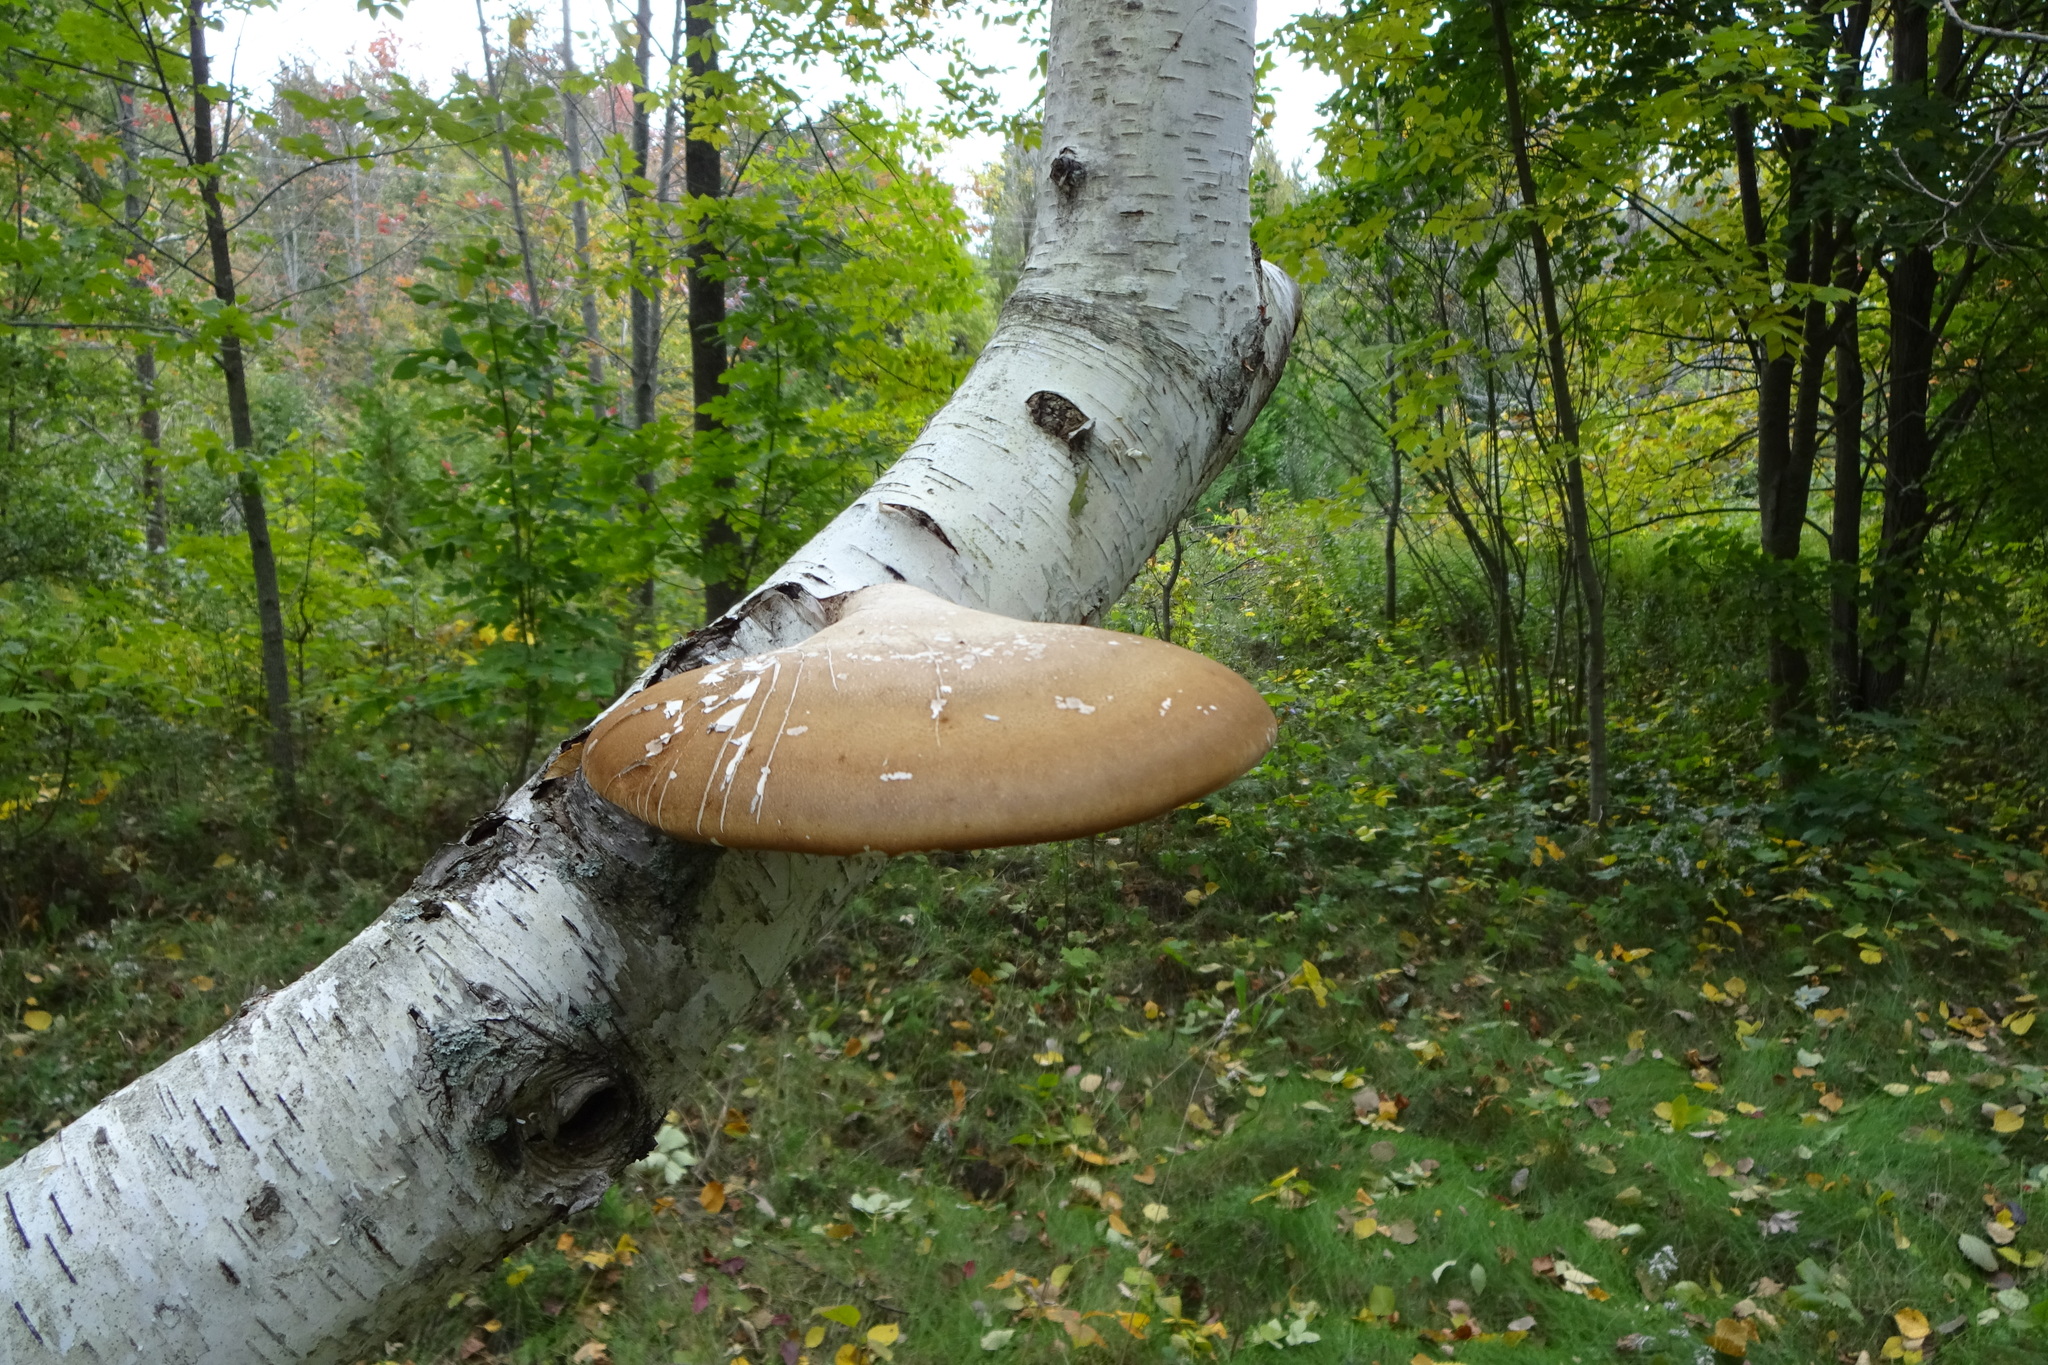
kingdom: Fungi
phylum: Basidiomycota
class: Agaricomycetes
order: Polyporales
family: Fomitopsidaceae
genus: Fomitopsis
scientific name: Fomitopsis betulina
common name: Birch polypore
